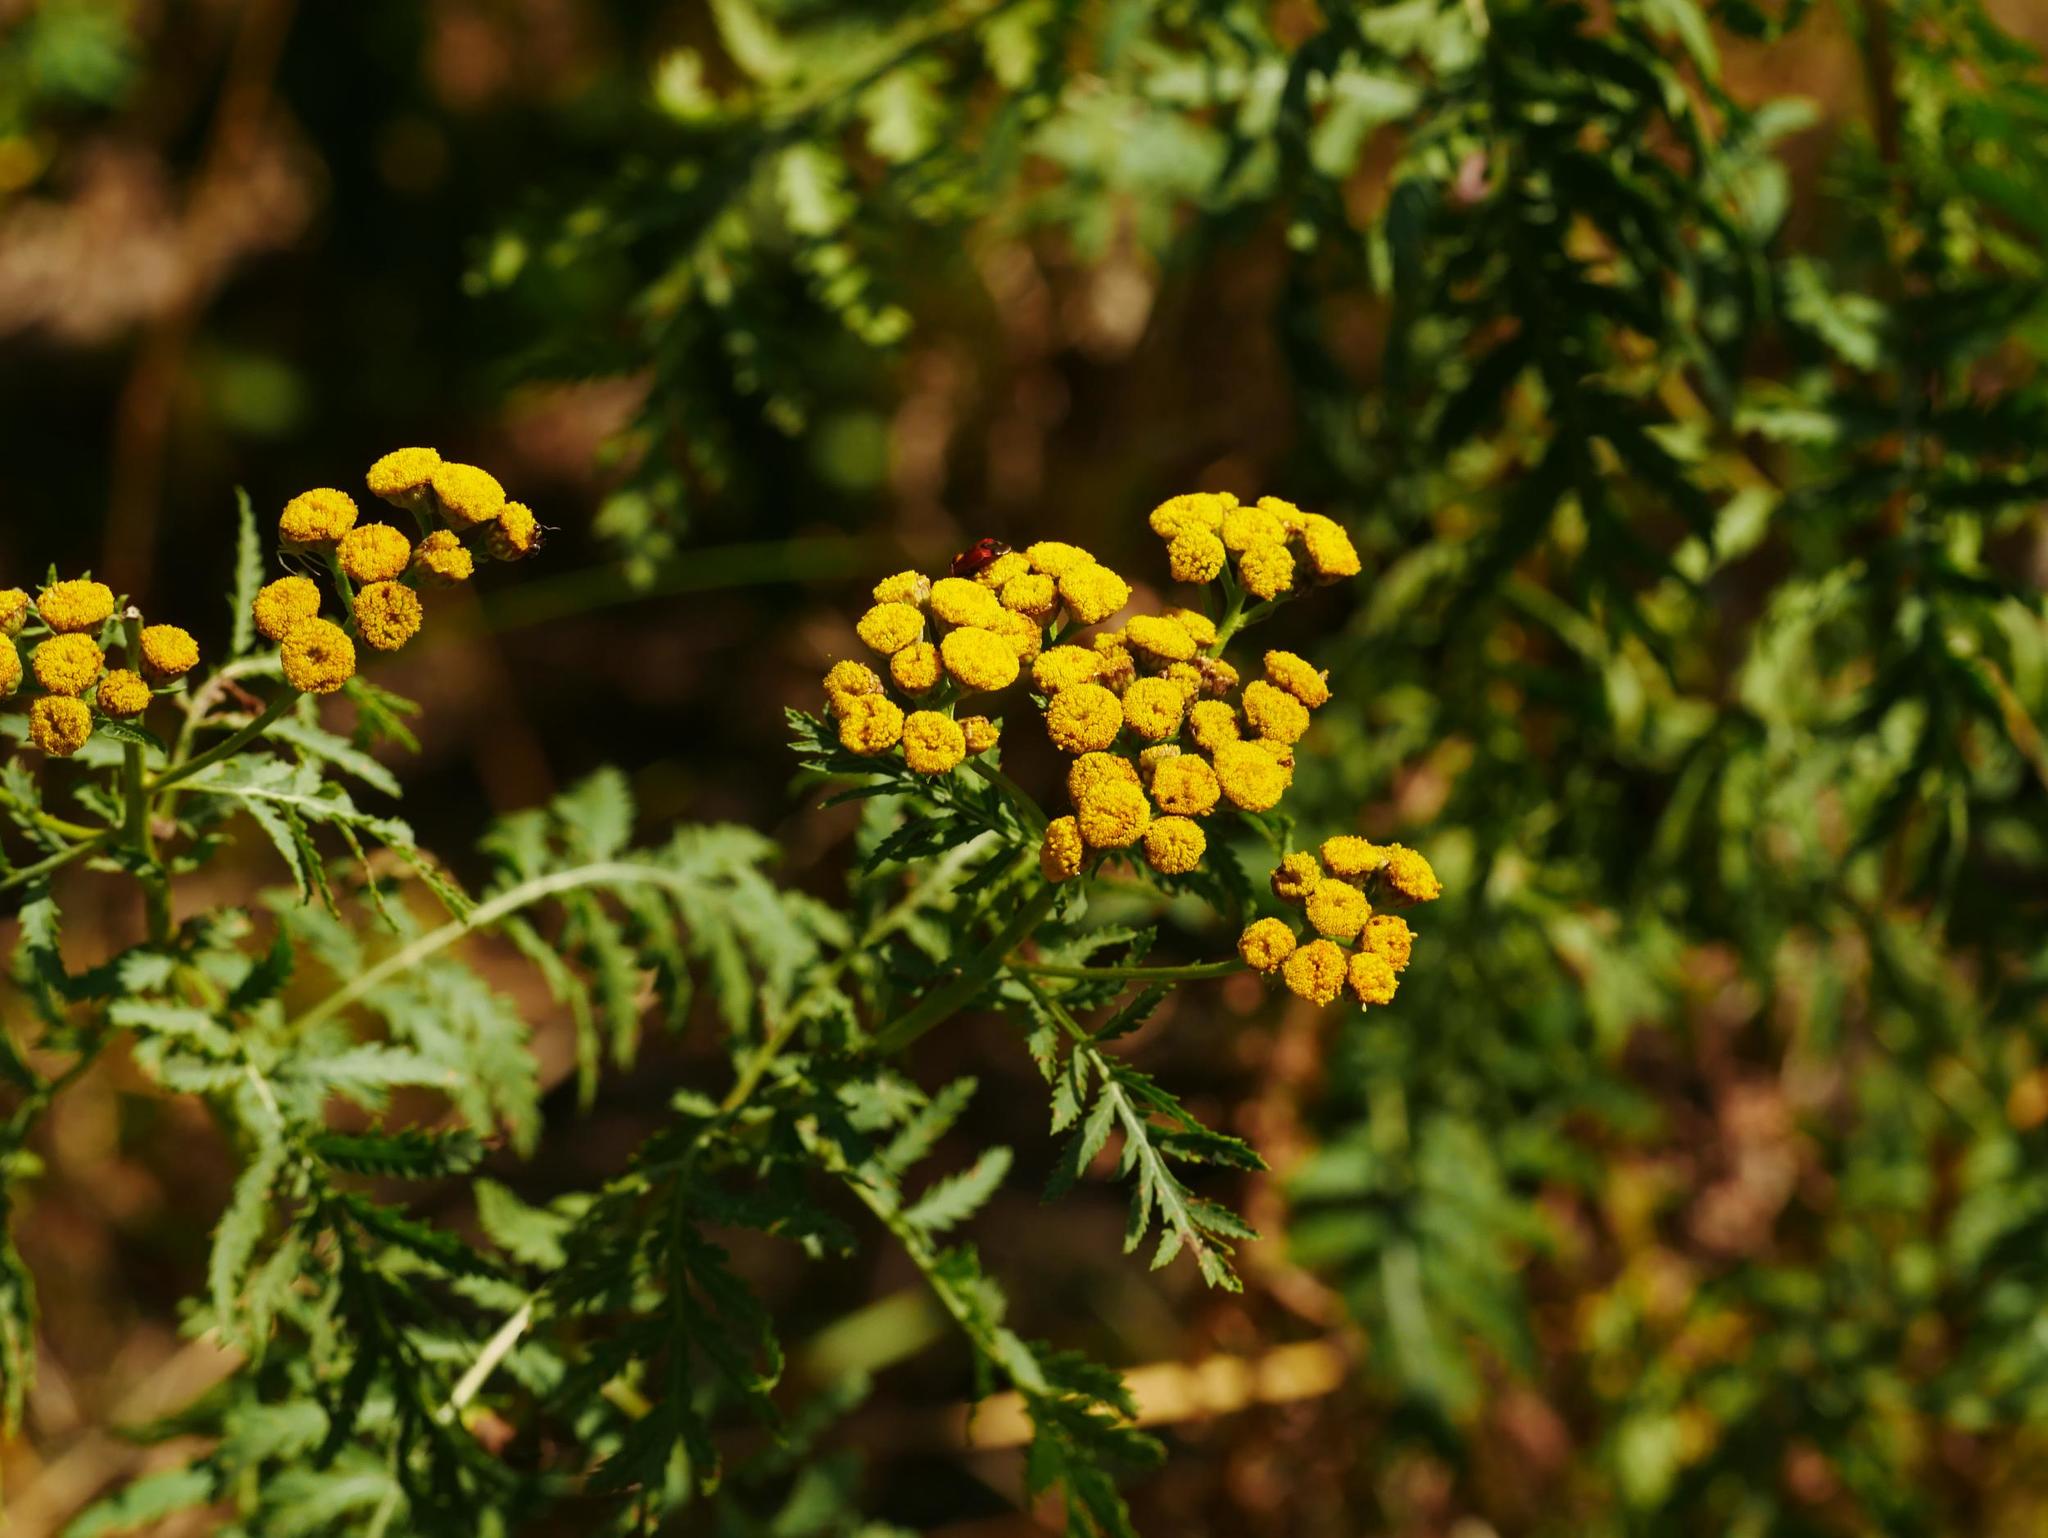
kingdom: Plantae
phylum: Tracheophyta
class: Magnoliopsida
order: Asterales
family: Asteraceae
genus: Tanacetum
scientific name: Tanacetum vulgare
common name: Common tansy
